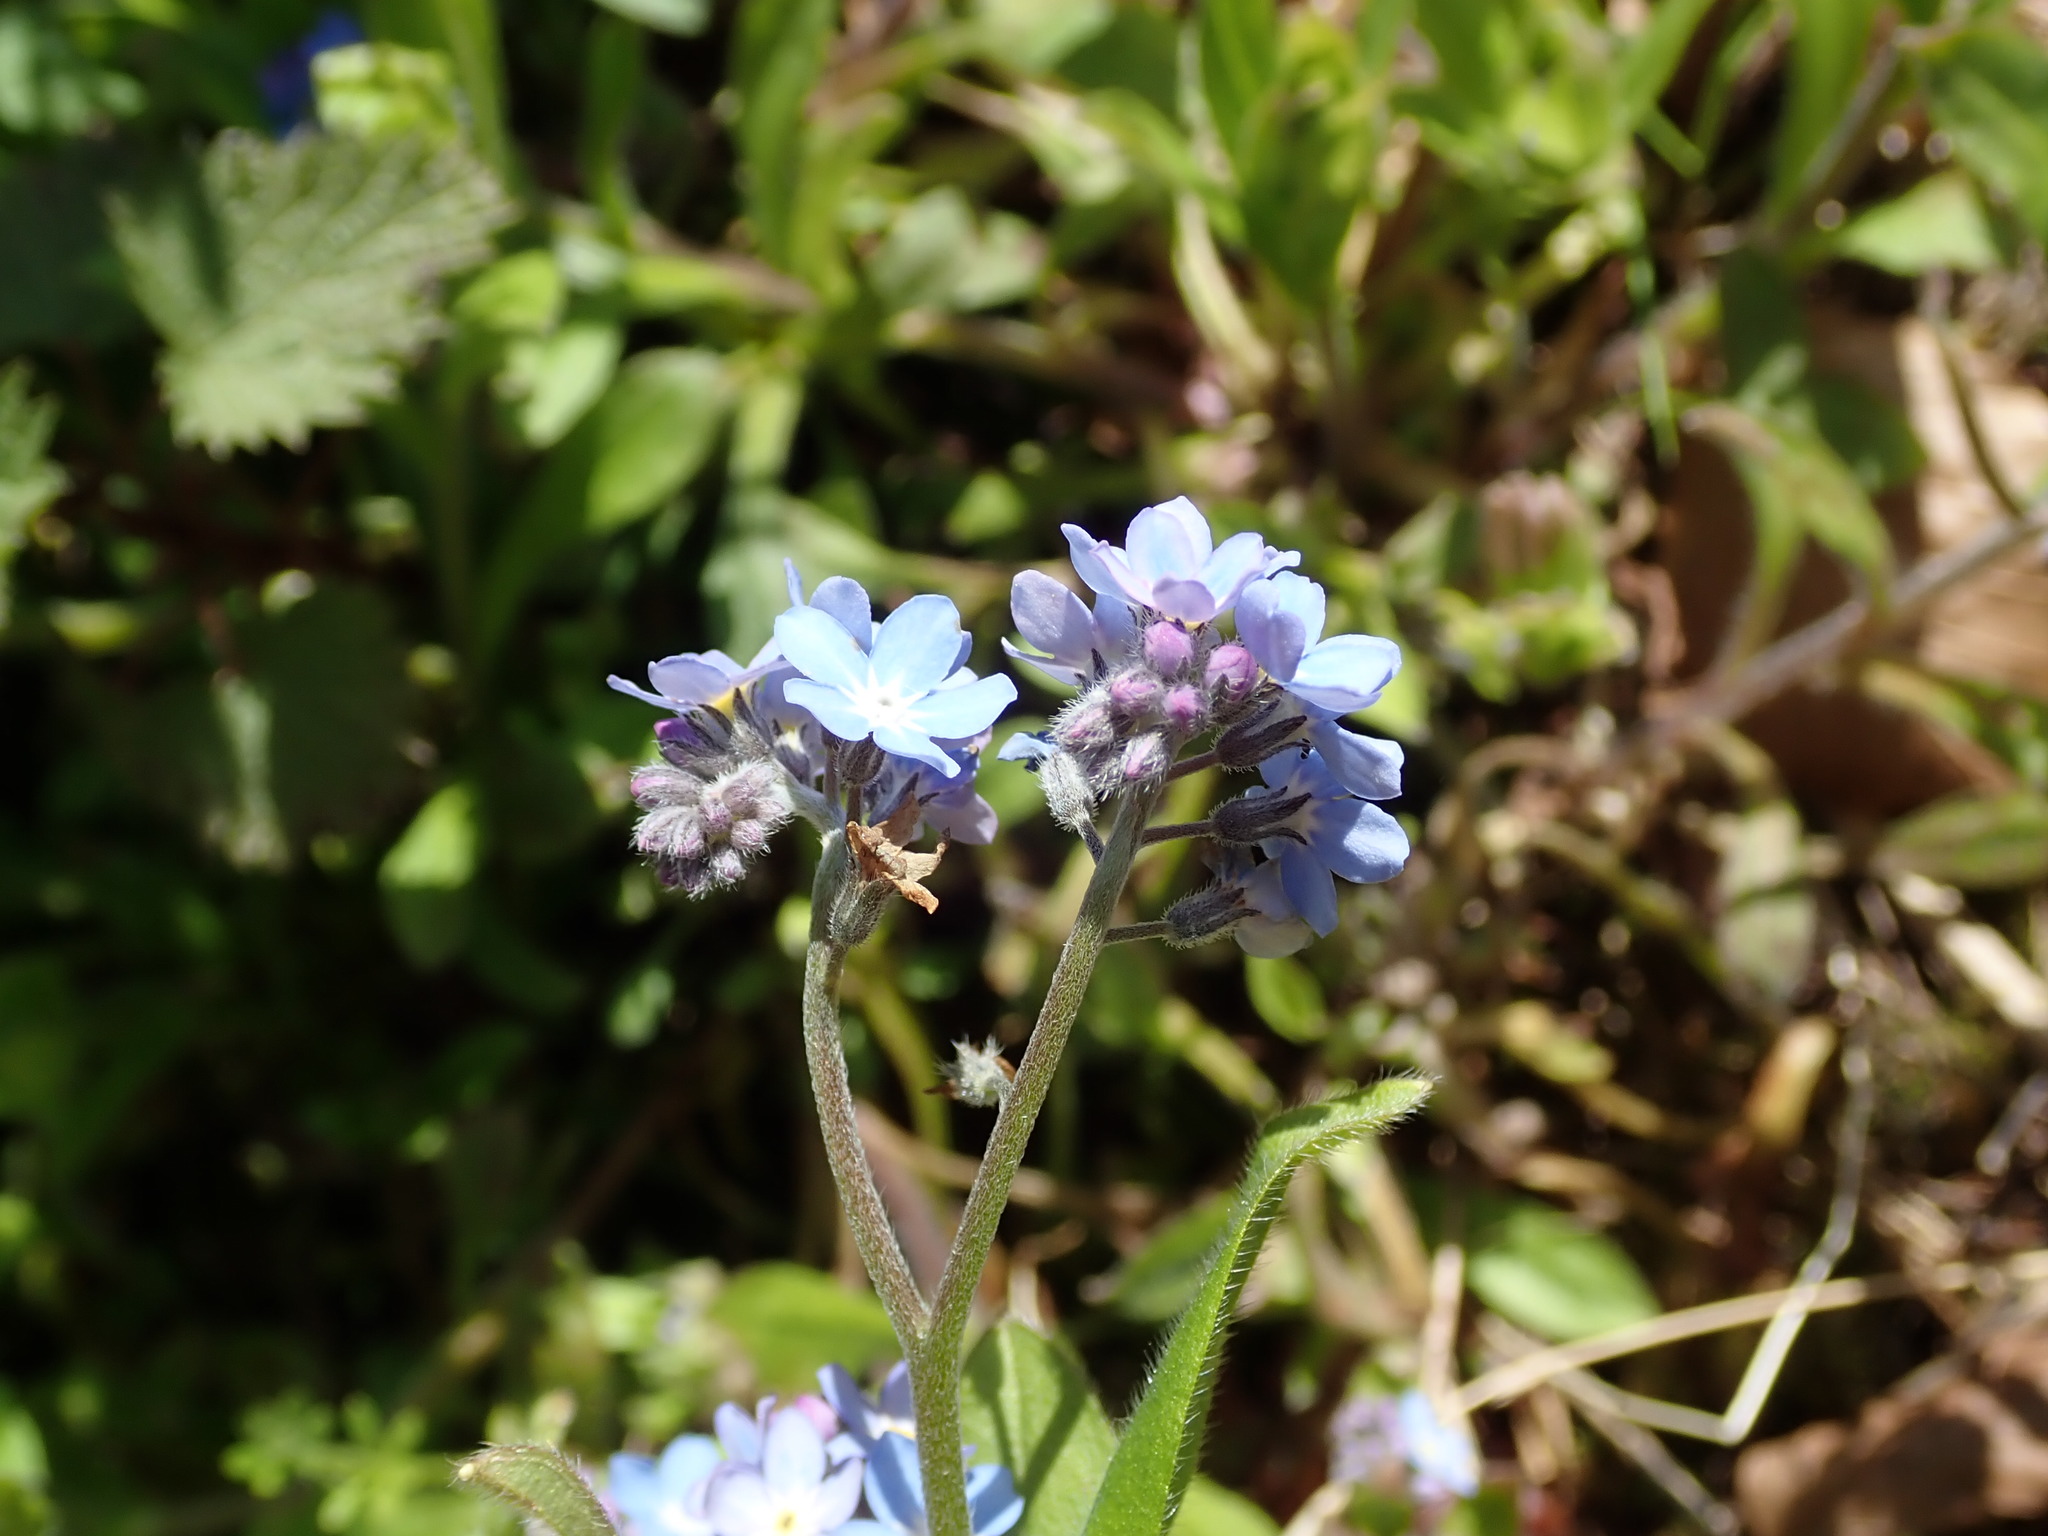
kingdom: Plantae
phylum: Tracheophyta
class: Magnoliopsida
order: Boraginales
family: Boraginaceae
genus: Myosotis
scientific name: Myosotis sylvatica
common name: Wood forget-me-not
